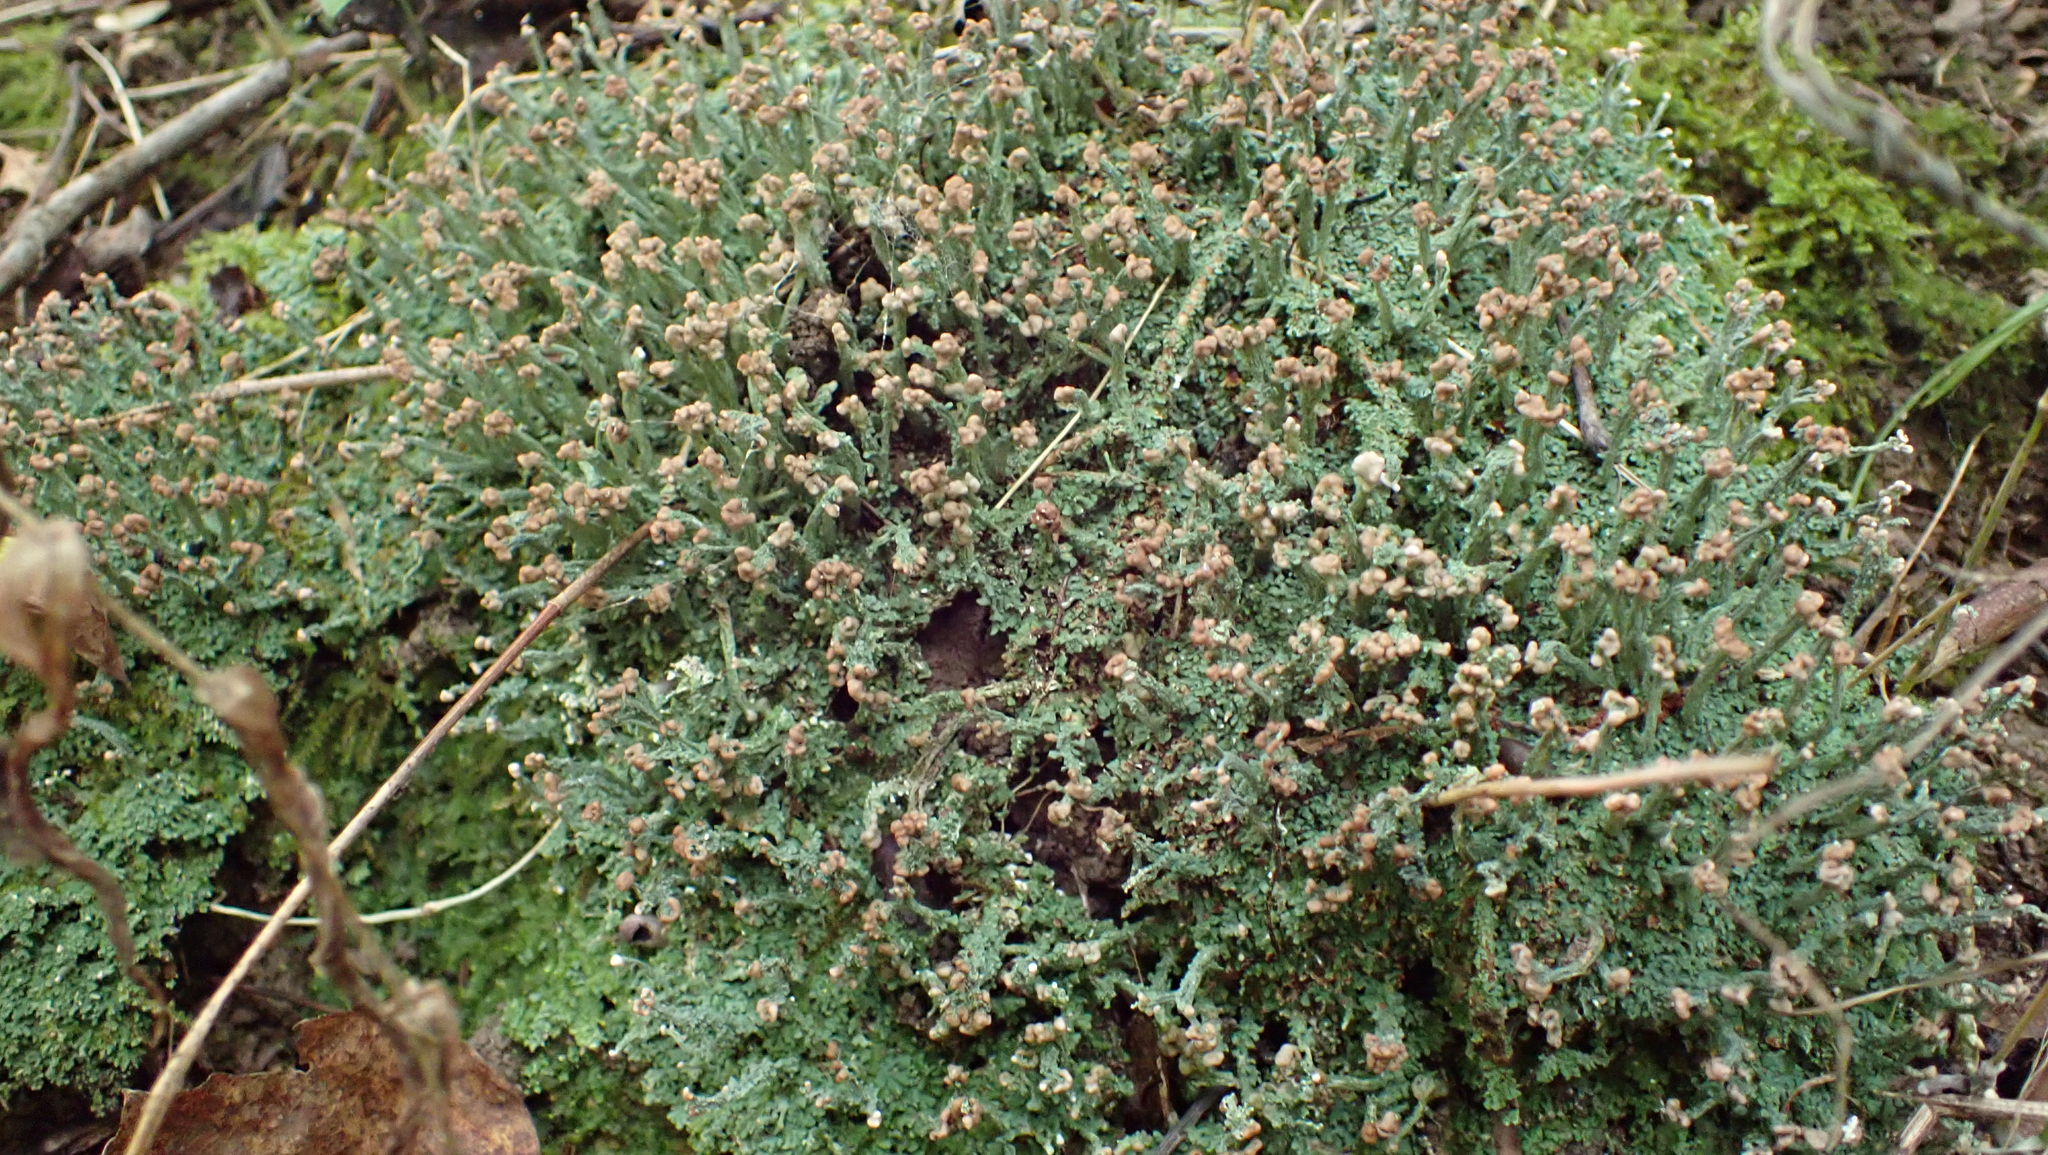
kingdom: Fungi
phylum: Ascomycota
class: Lecanoromycetes
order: Lecanorales
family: Cladoniaceae
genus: Cladonia
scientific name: Cladonia peziziformis
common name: Cup lichen
